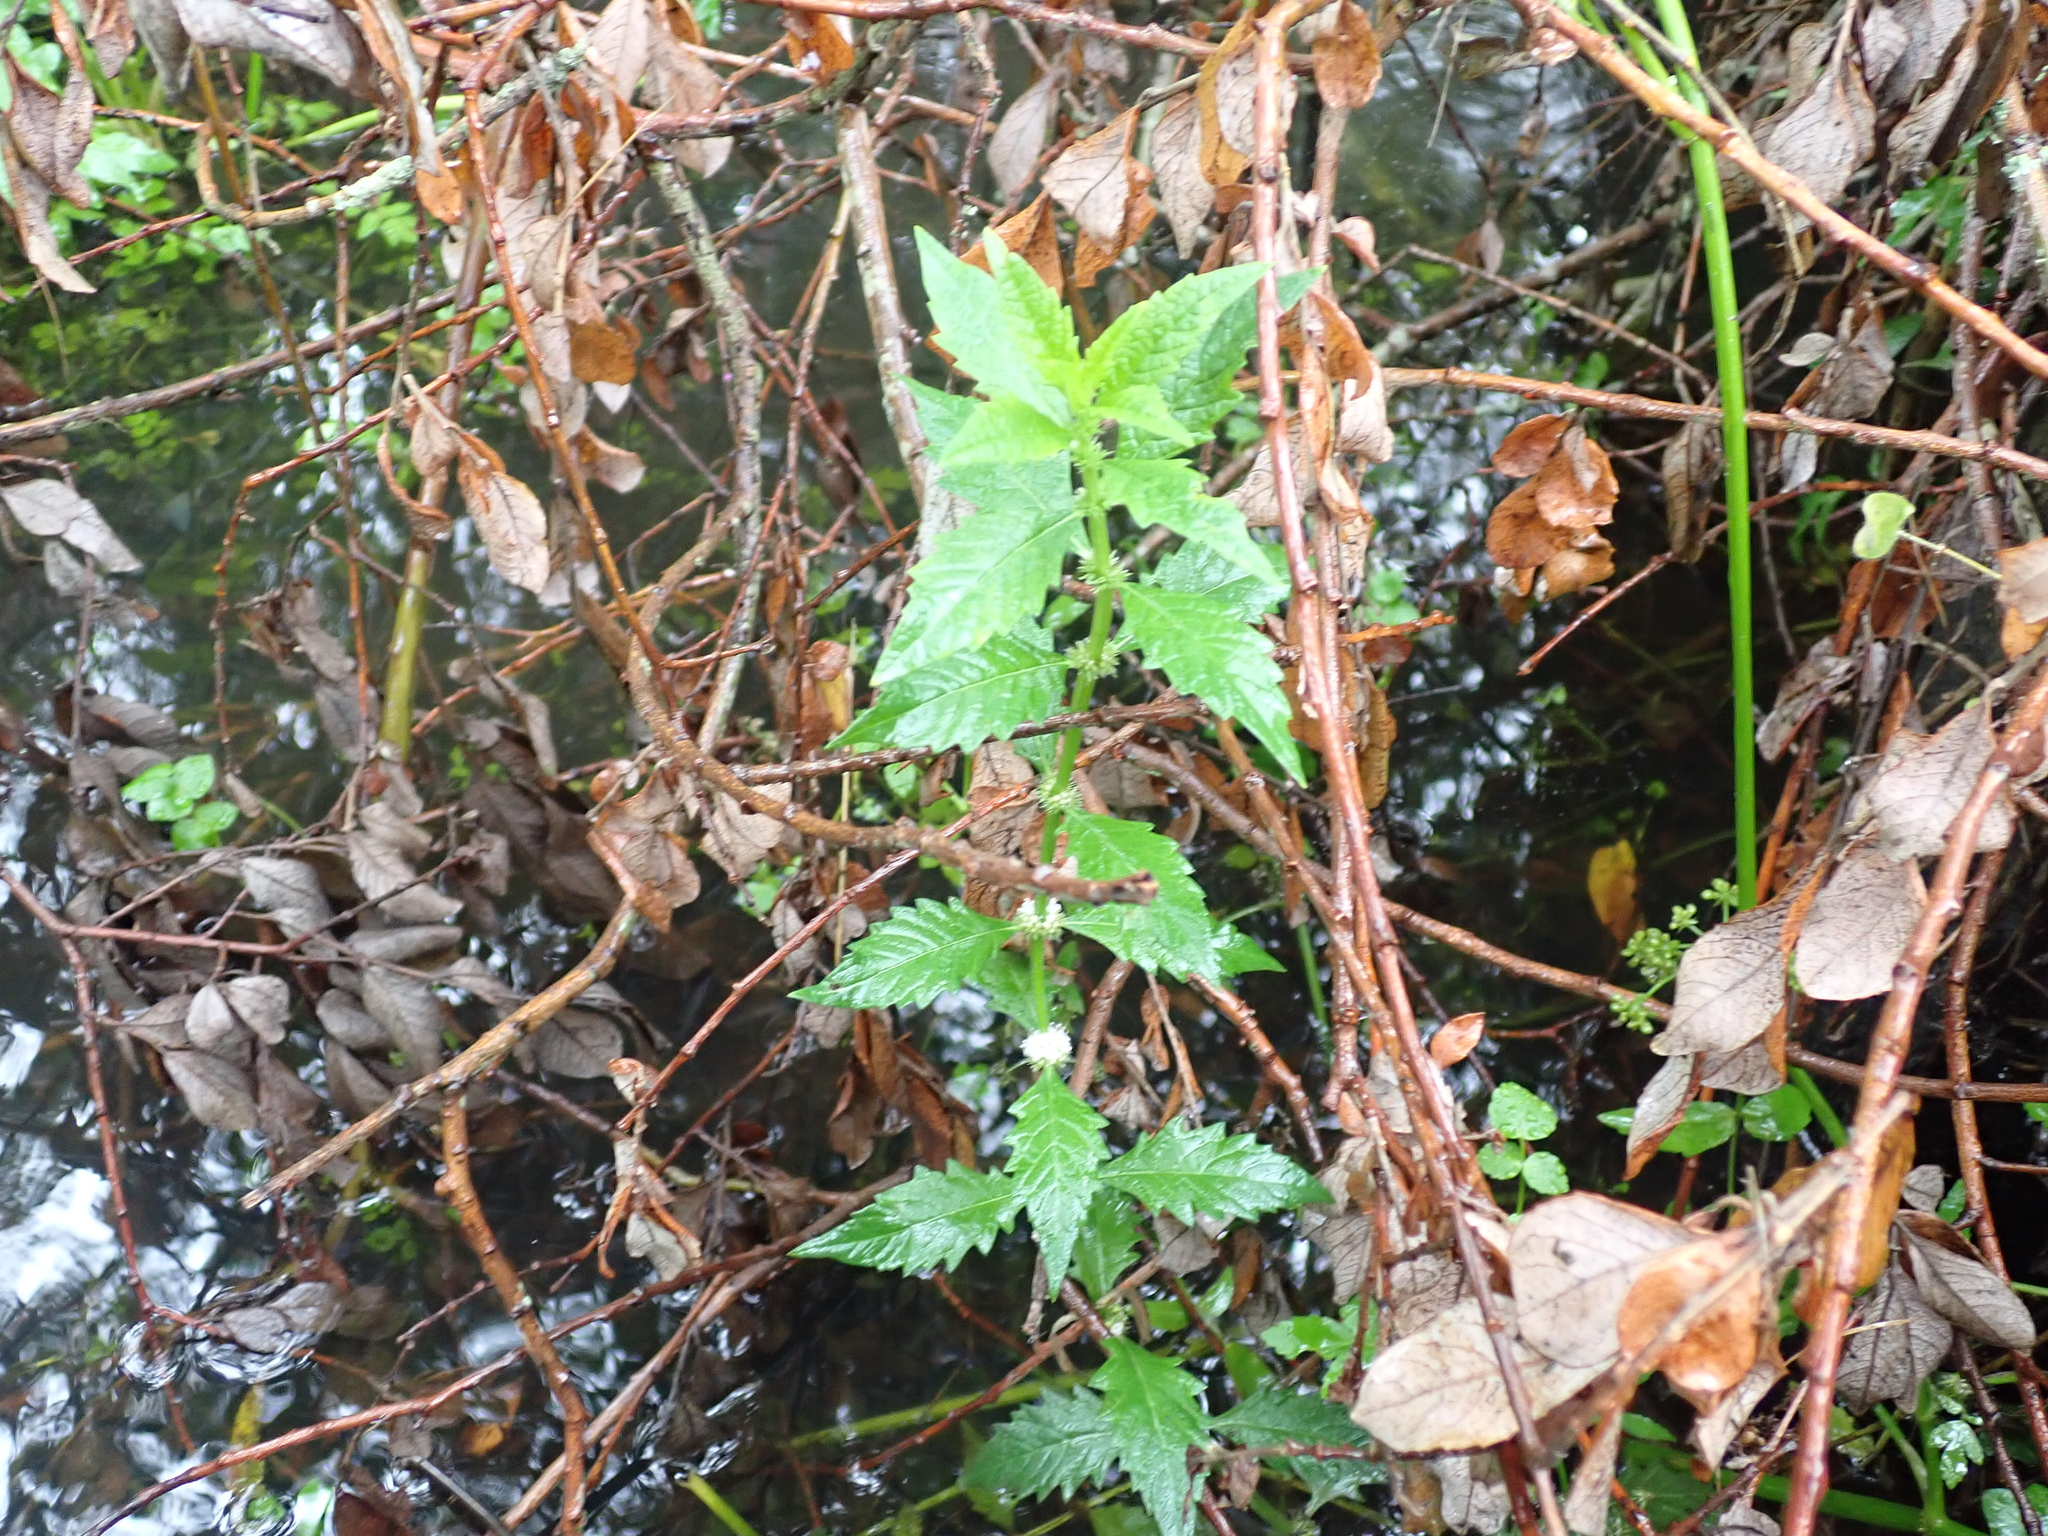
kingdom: Plantae
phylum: Tracheophyta
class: Magnoliopsida
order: Lamiales
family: Lamiaceae
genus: Lycopus
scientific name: Lycopus europaeus
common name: European bugleweed
